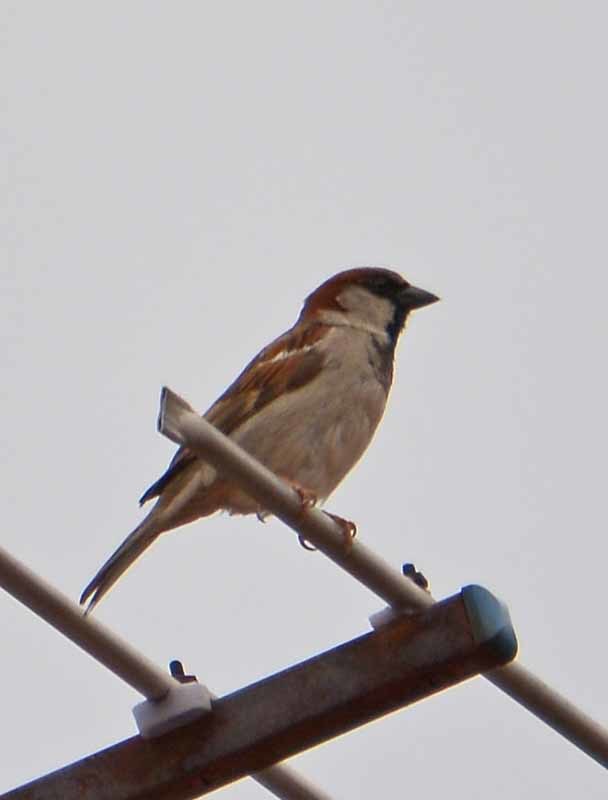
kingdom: Animalia
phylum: Chordata
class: Aves
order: Passeriformes
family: Passeridae
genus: Passer
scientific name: Passer domesticus
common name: House sparrow
